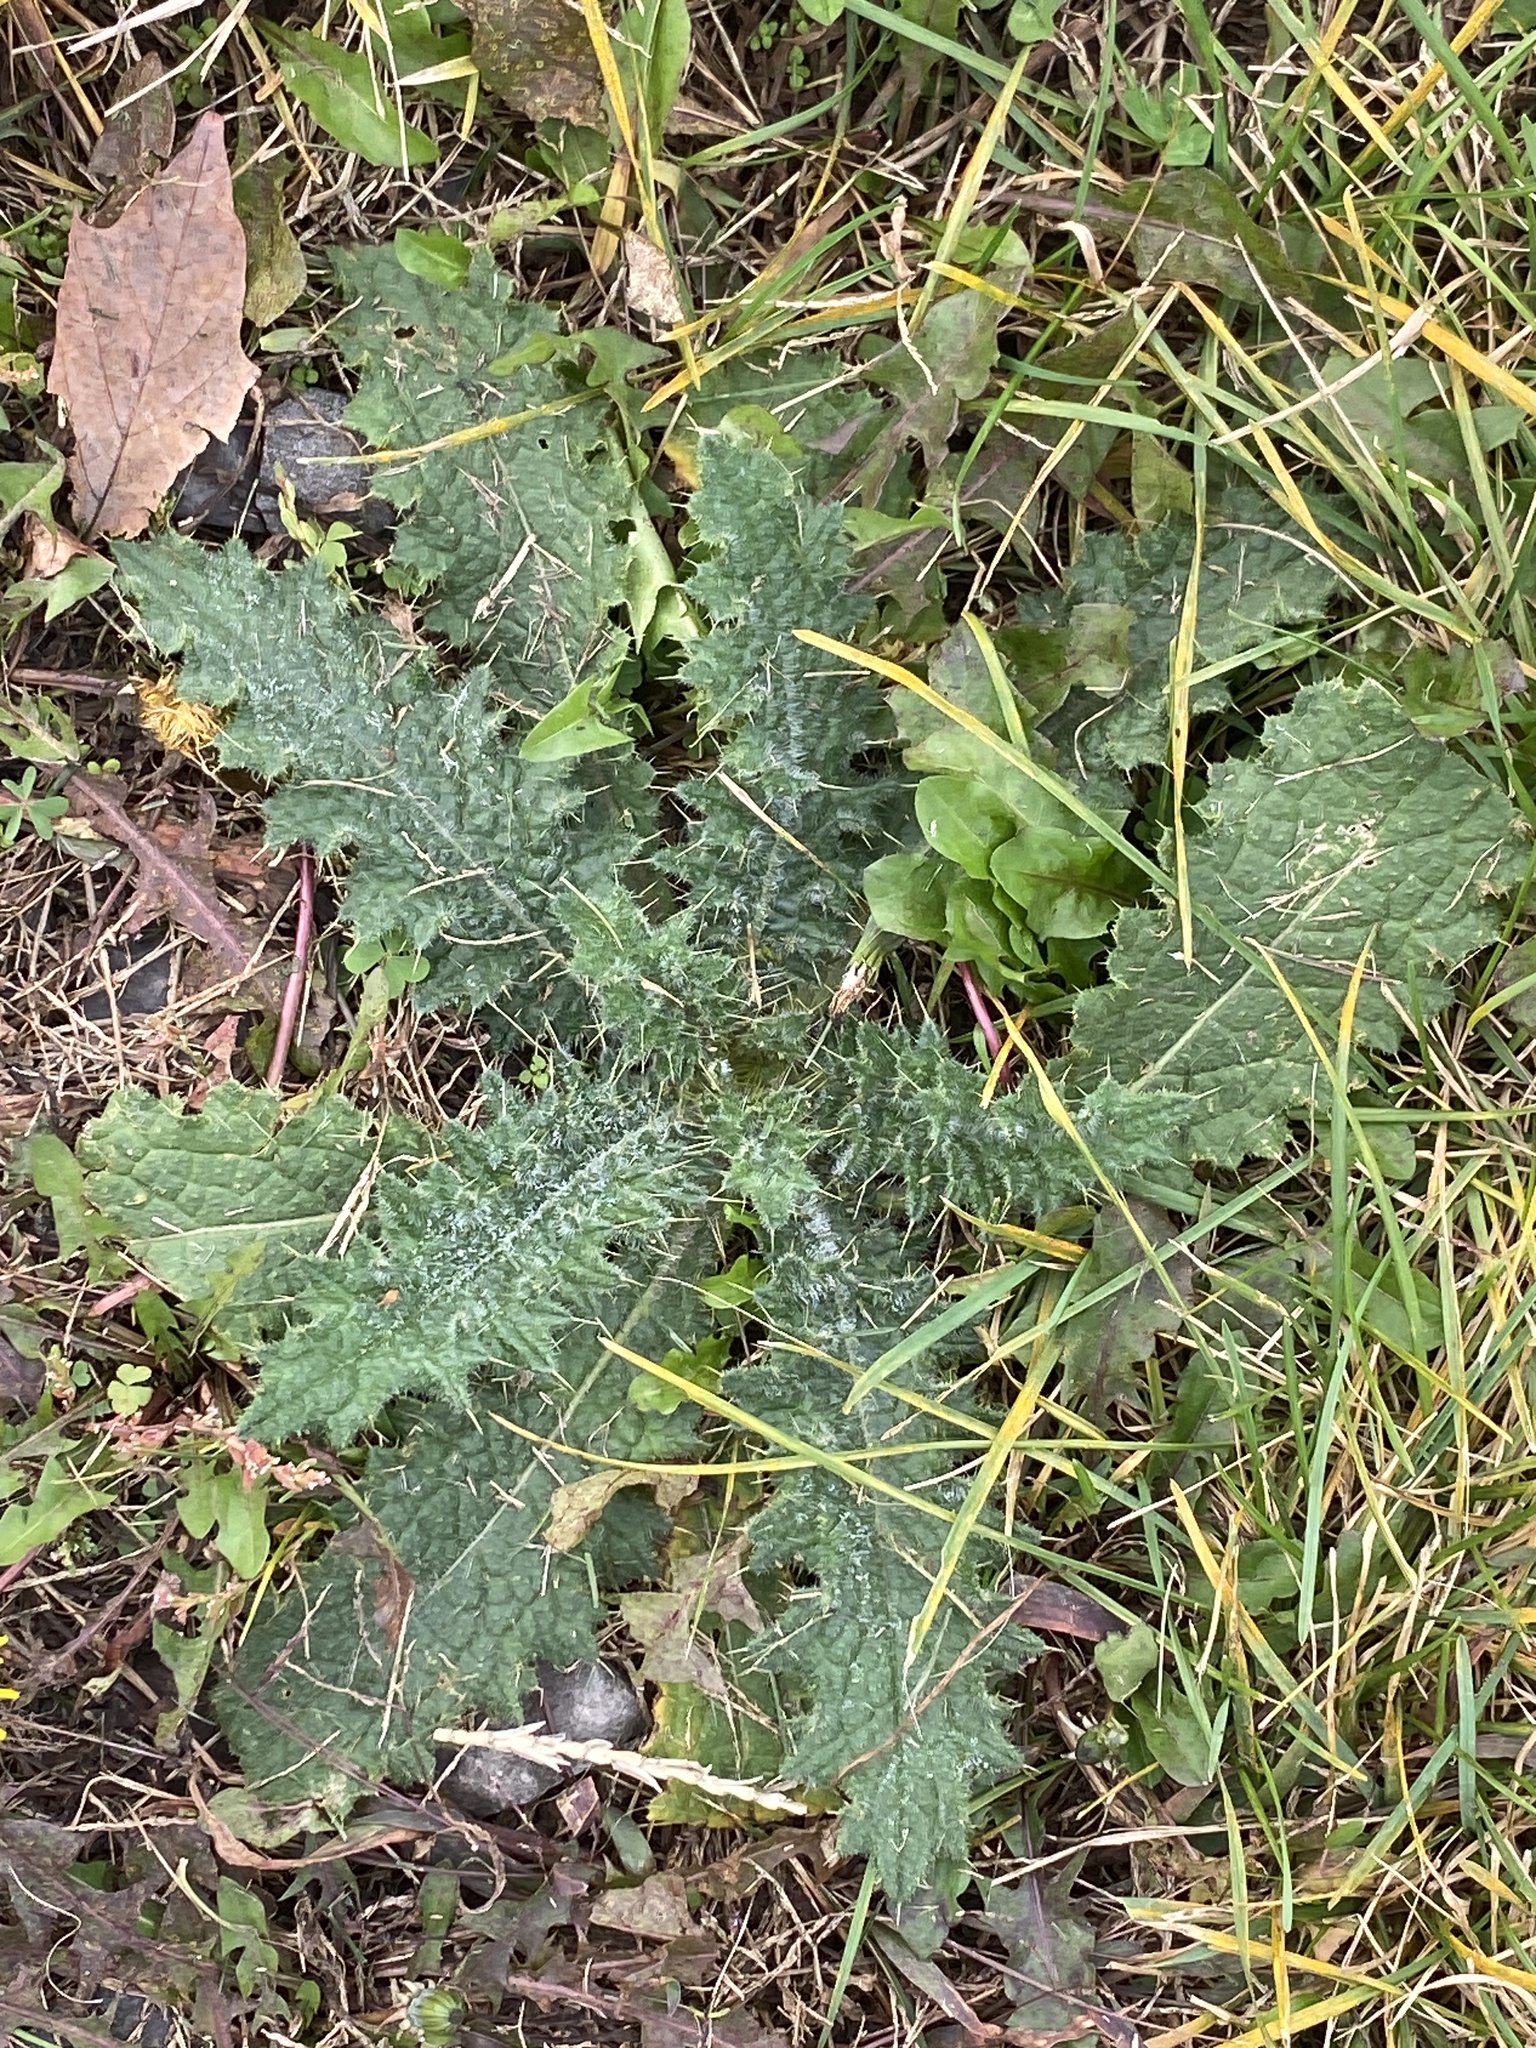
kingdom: Plantae
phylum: Tracheophyta
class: Magnoliopsida
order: Asterales
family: Asteraceae
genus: Cirsium
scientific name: Cirsium vulgare
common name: Bull thistle
